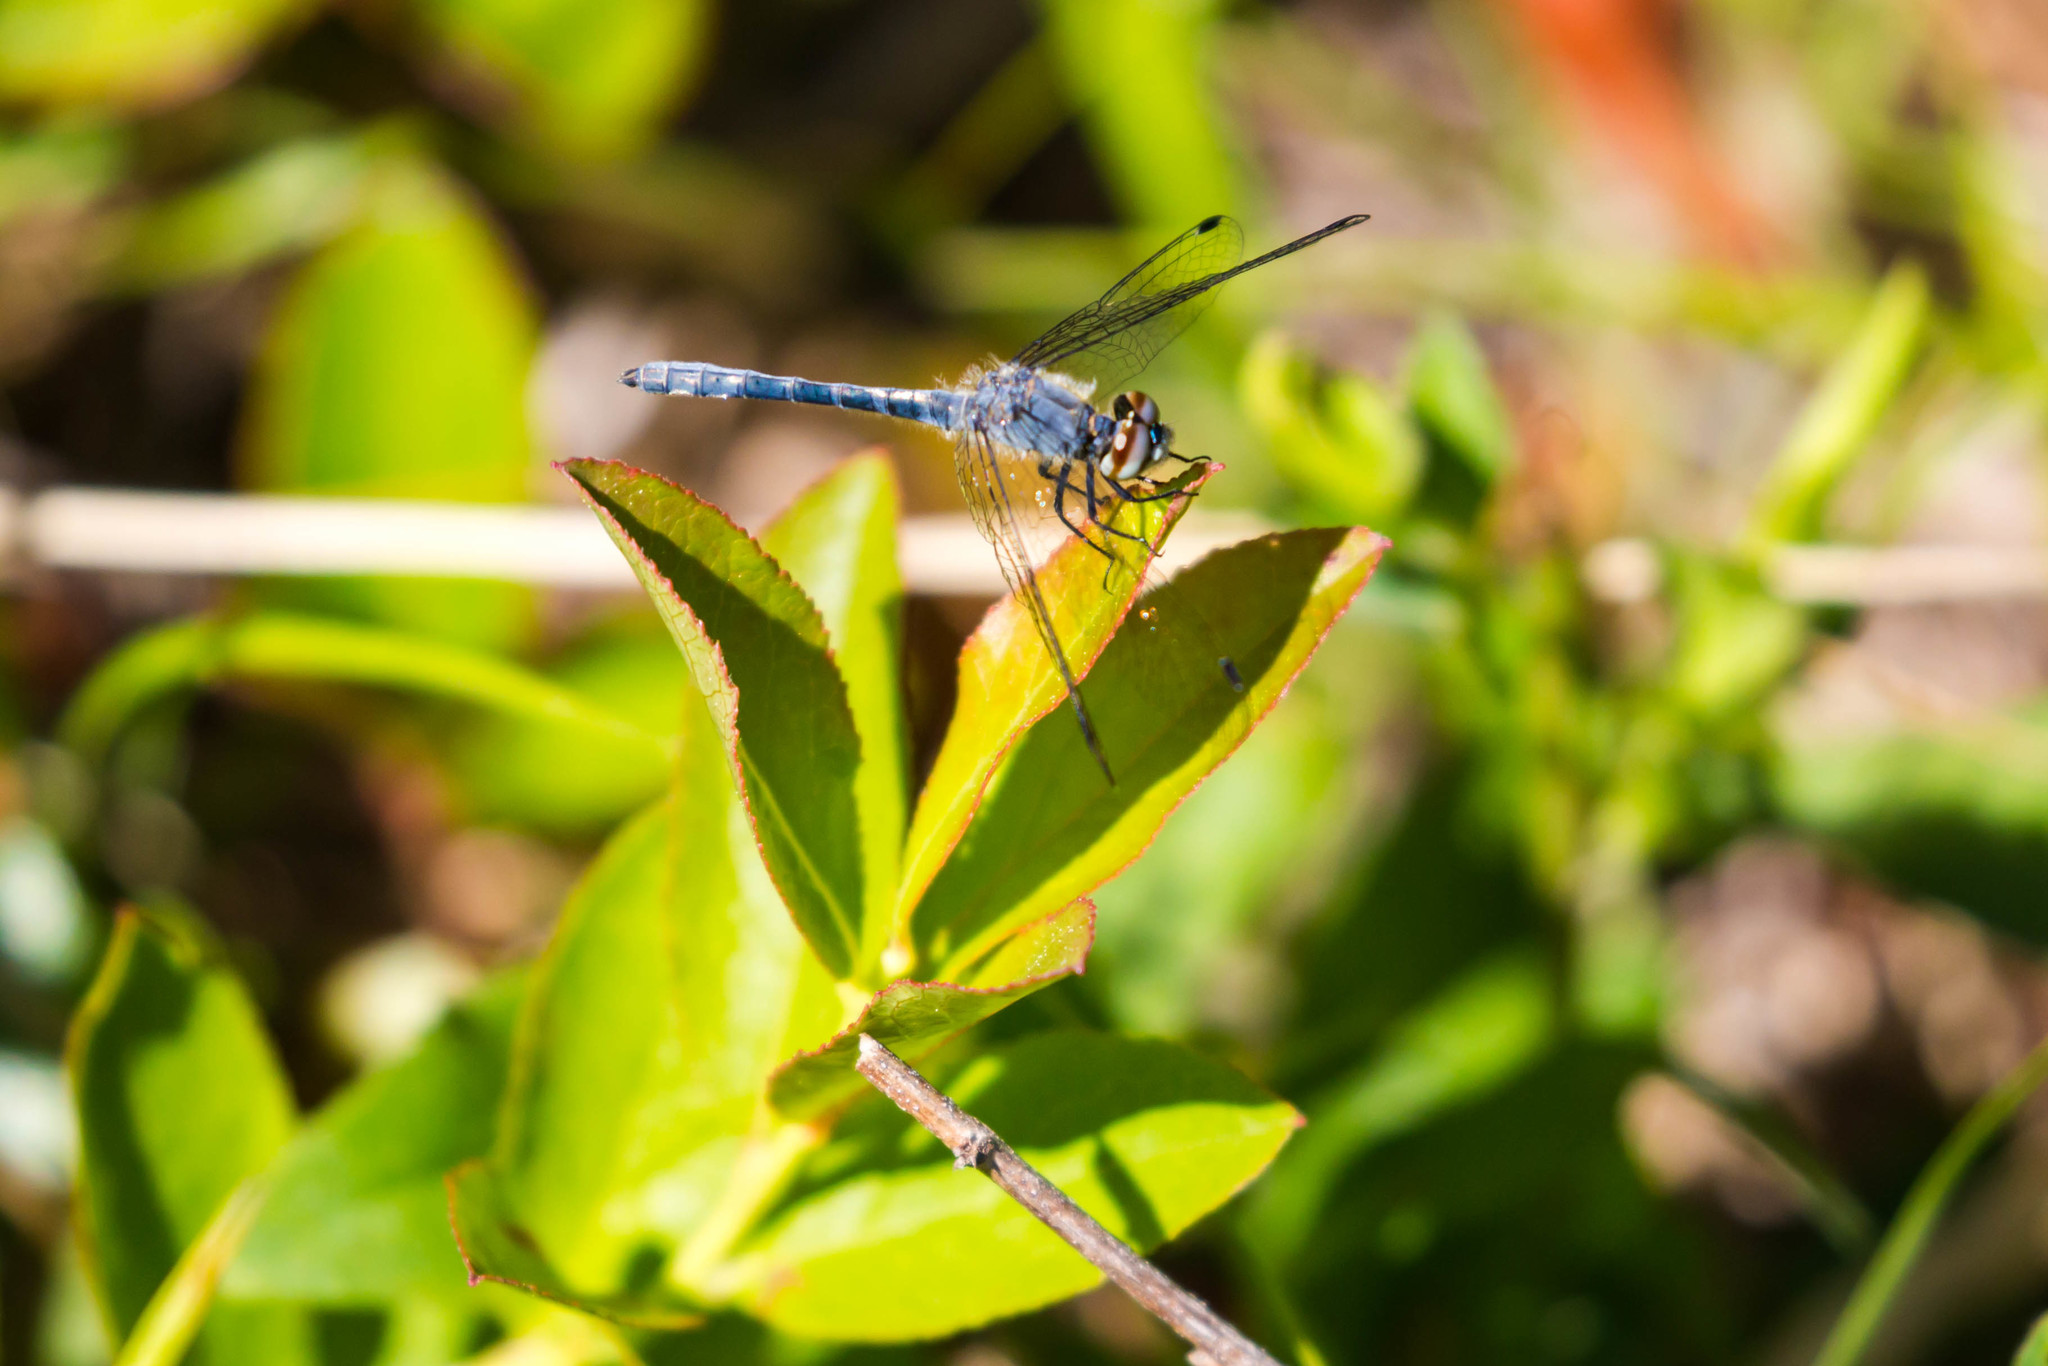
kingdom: Animalia
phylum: Arthropoda
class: Insecta
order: Odonata
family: Libellulidae
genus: Nannothemis
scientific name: Nannothemis bella
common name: Elfin skimmer
